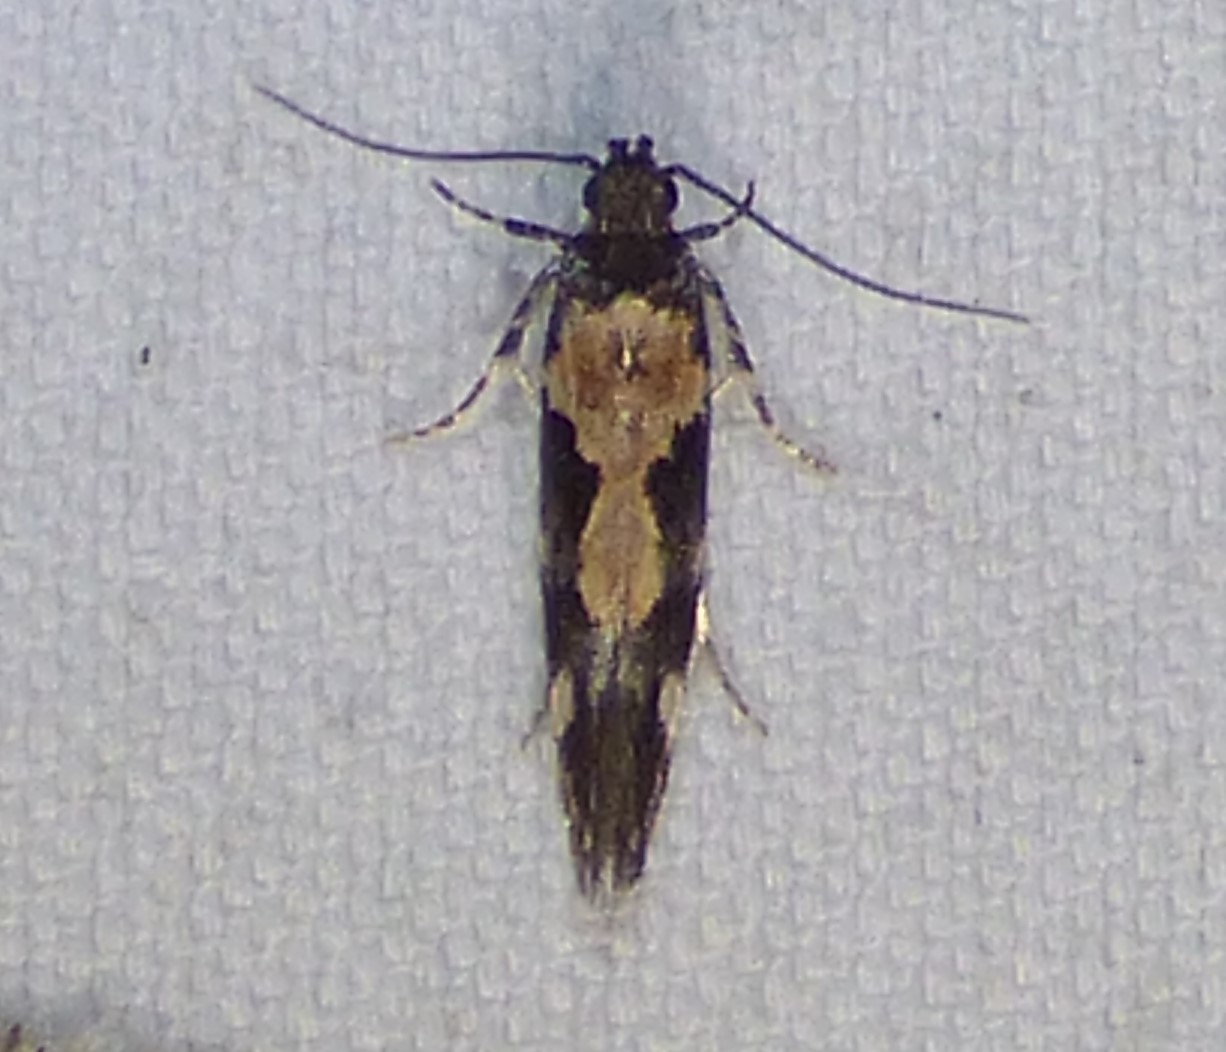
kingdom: Animalia
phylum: Arthropoda
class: Insecta
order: Lepidoptera
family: Gelechiidae
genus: Stegasta
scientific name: Stegasta bosqueella
